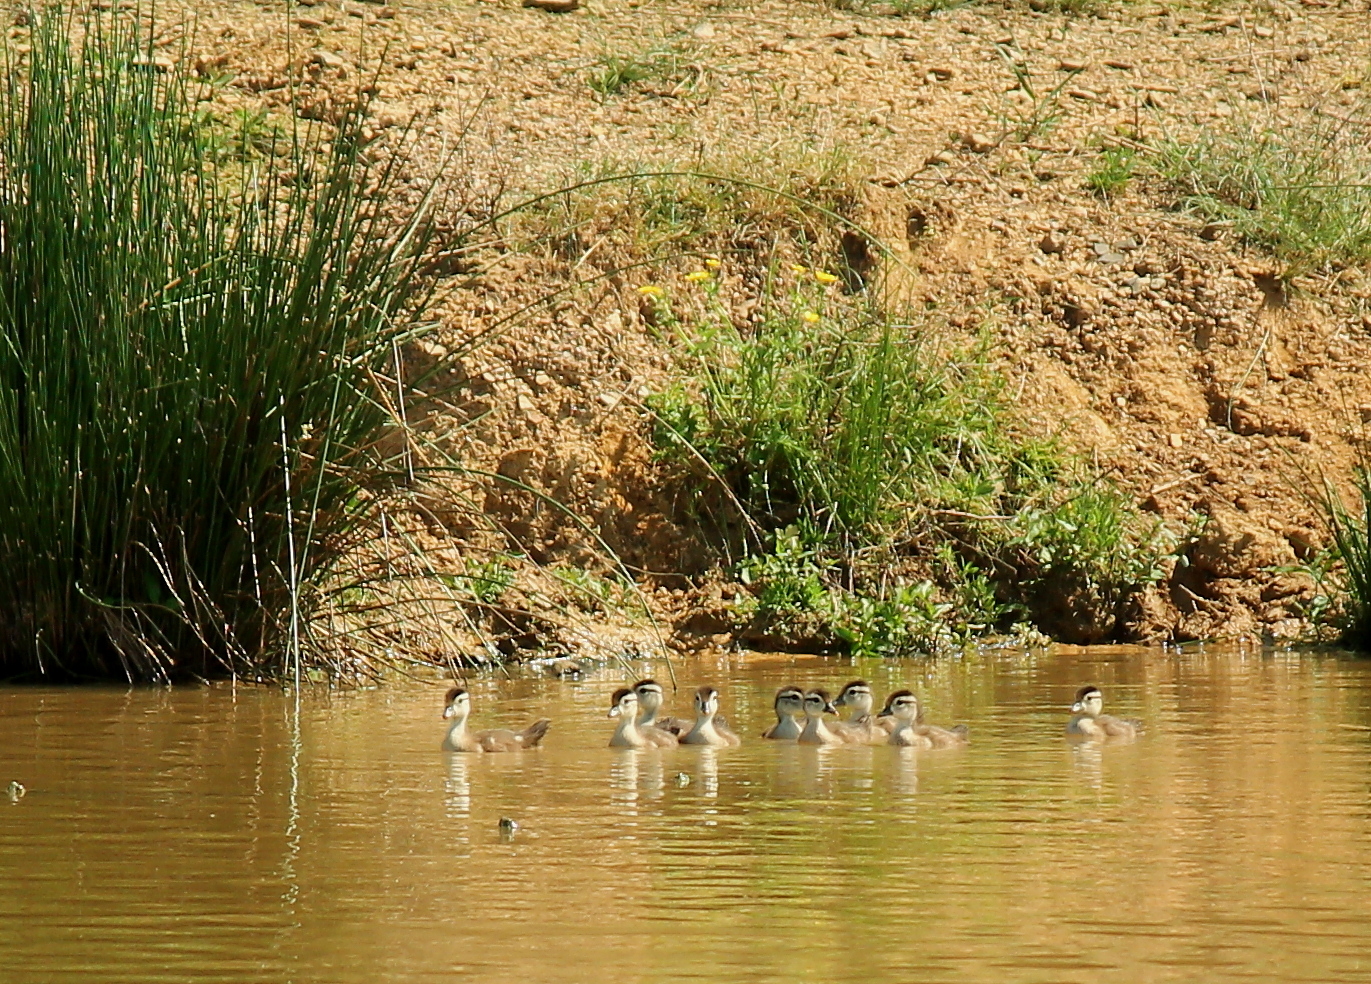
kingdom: Animalia
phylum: Chordata
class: Aves
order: Anseriformes
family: Anatidae
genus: Aix
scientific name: Aix sponsa
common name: Wood duck
